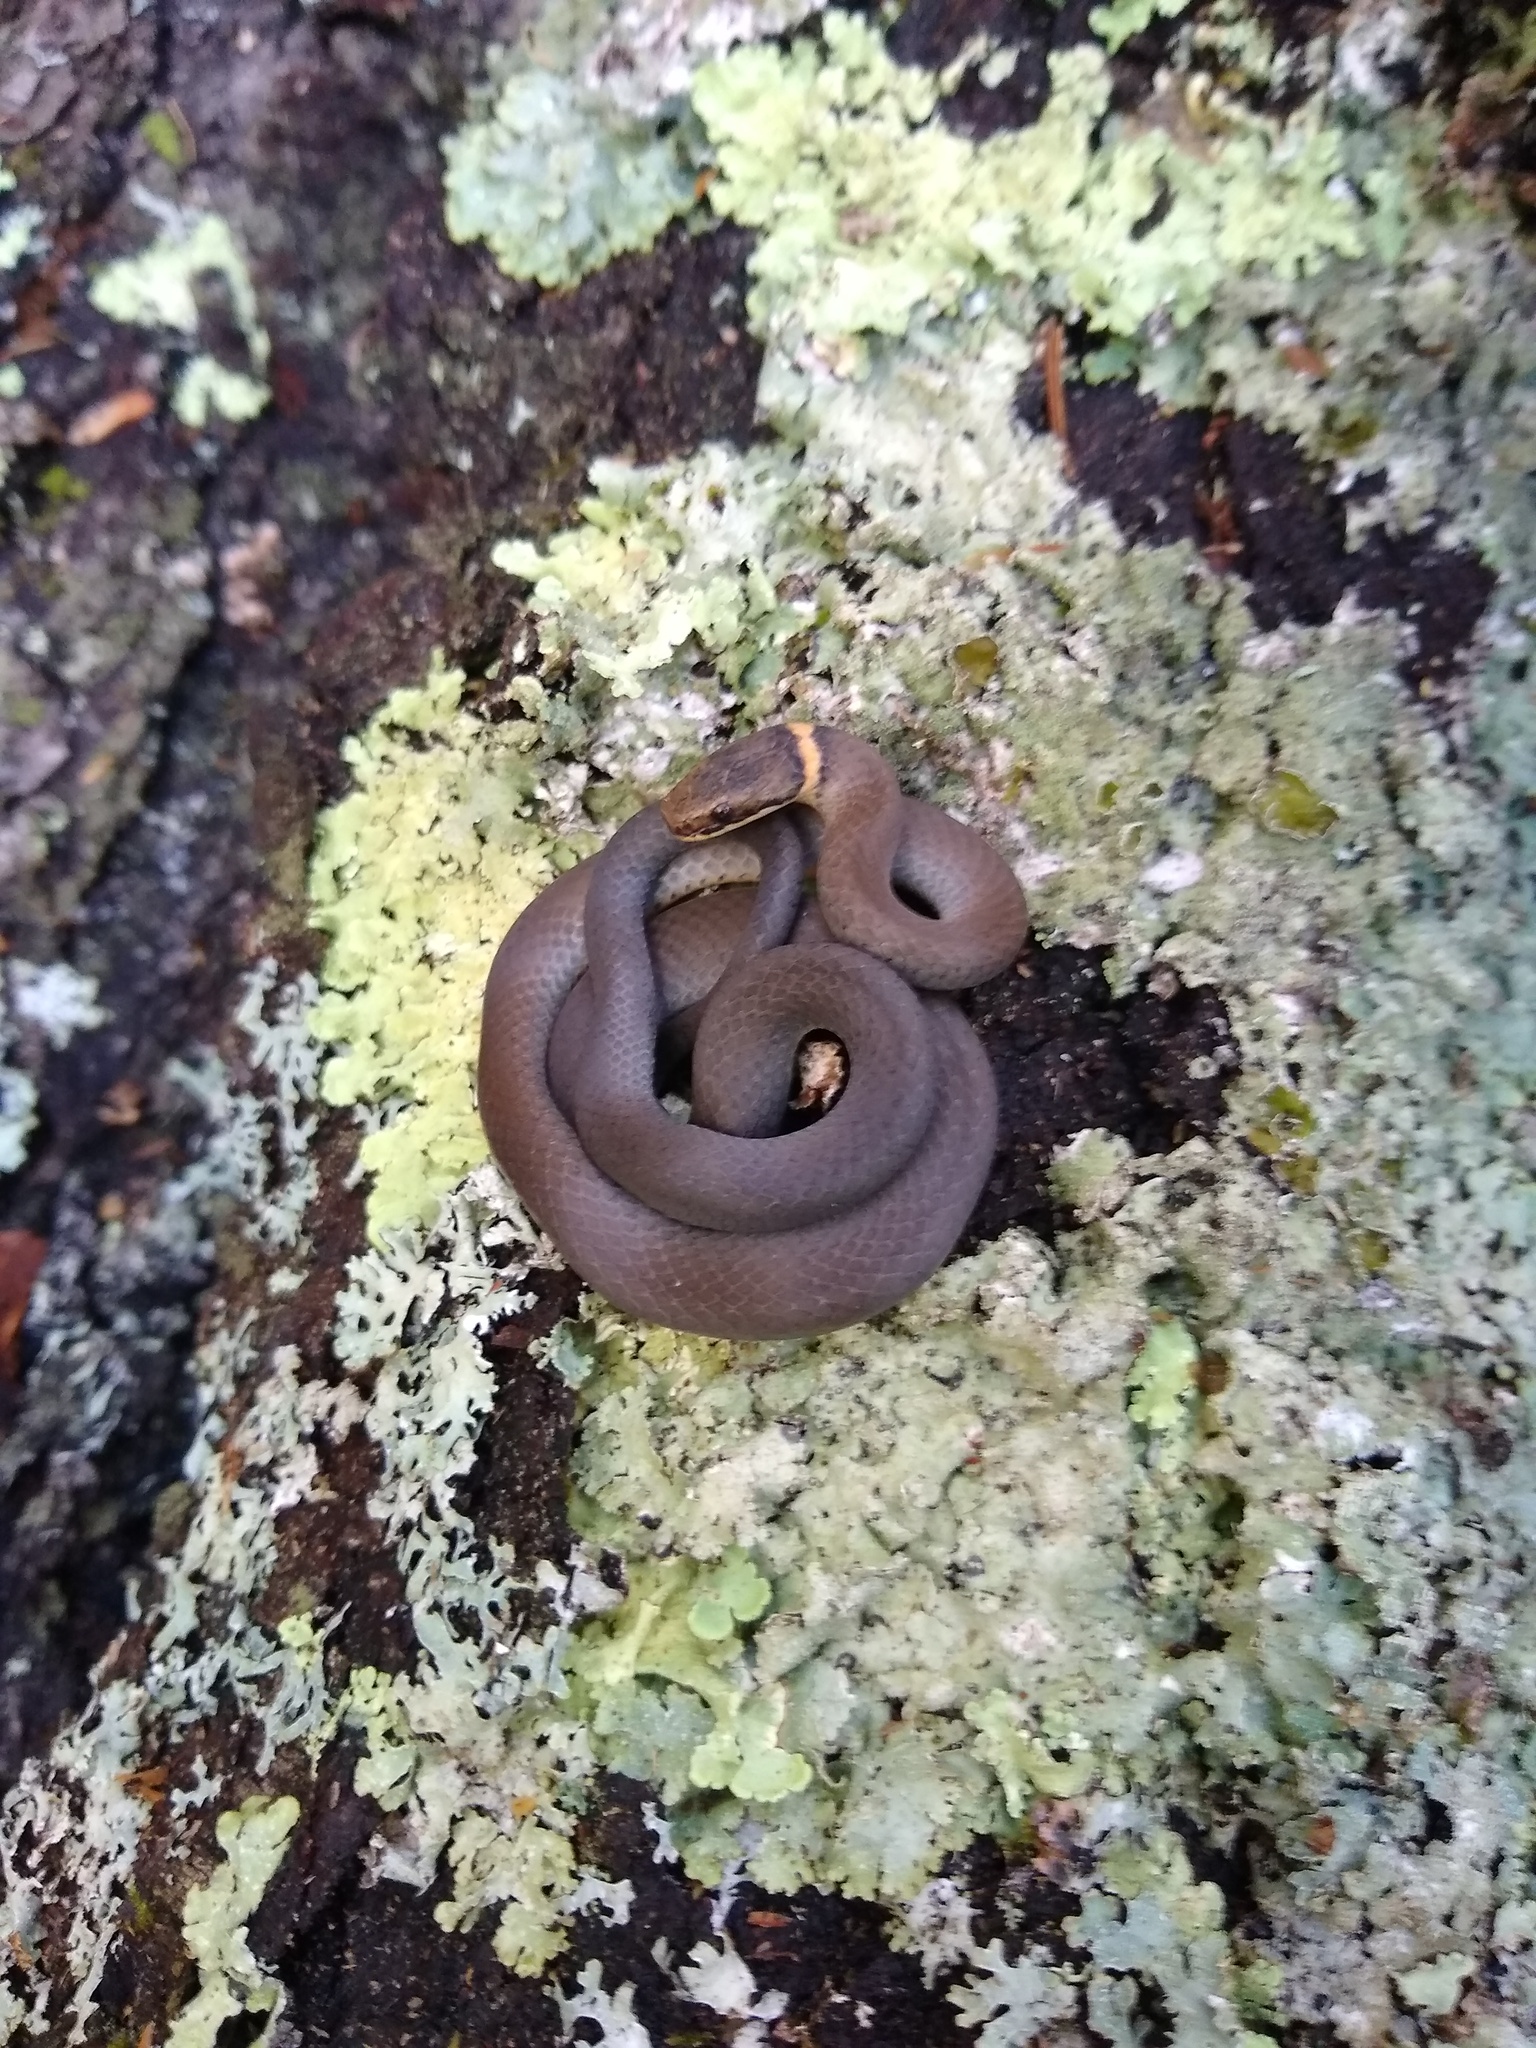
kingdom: Animalia
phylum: Chordata
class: Squamata
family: Colubridae
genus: Diadophis
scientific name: Diadophis punctatus
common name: Ringneck snake
